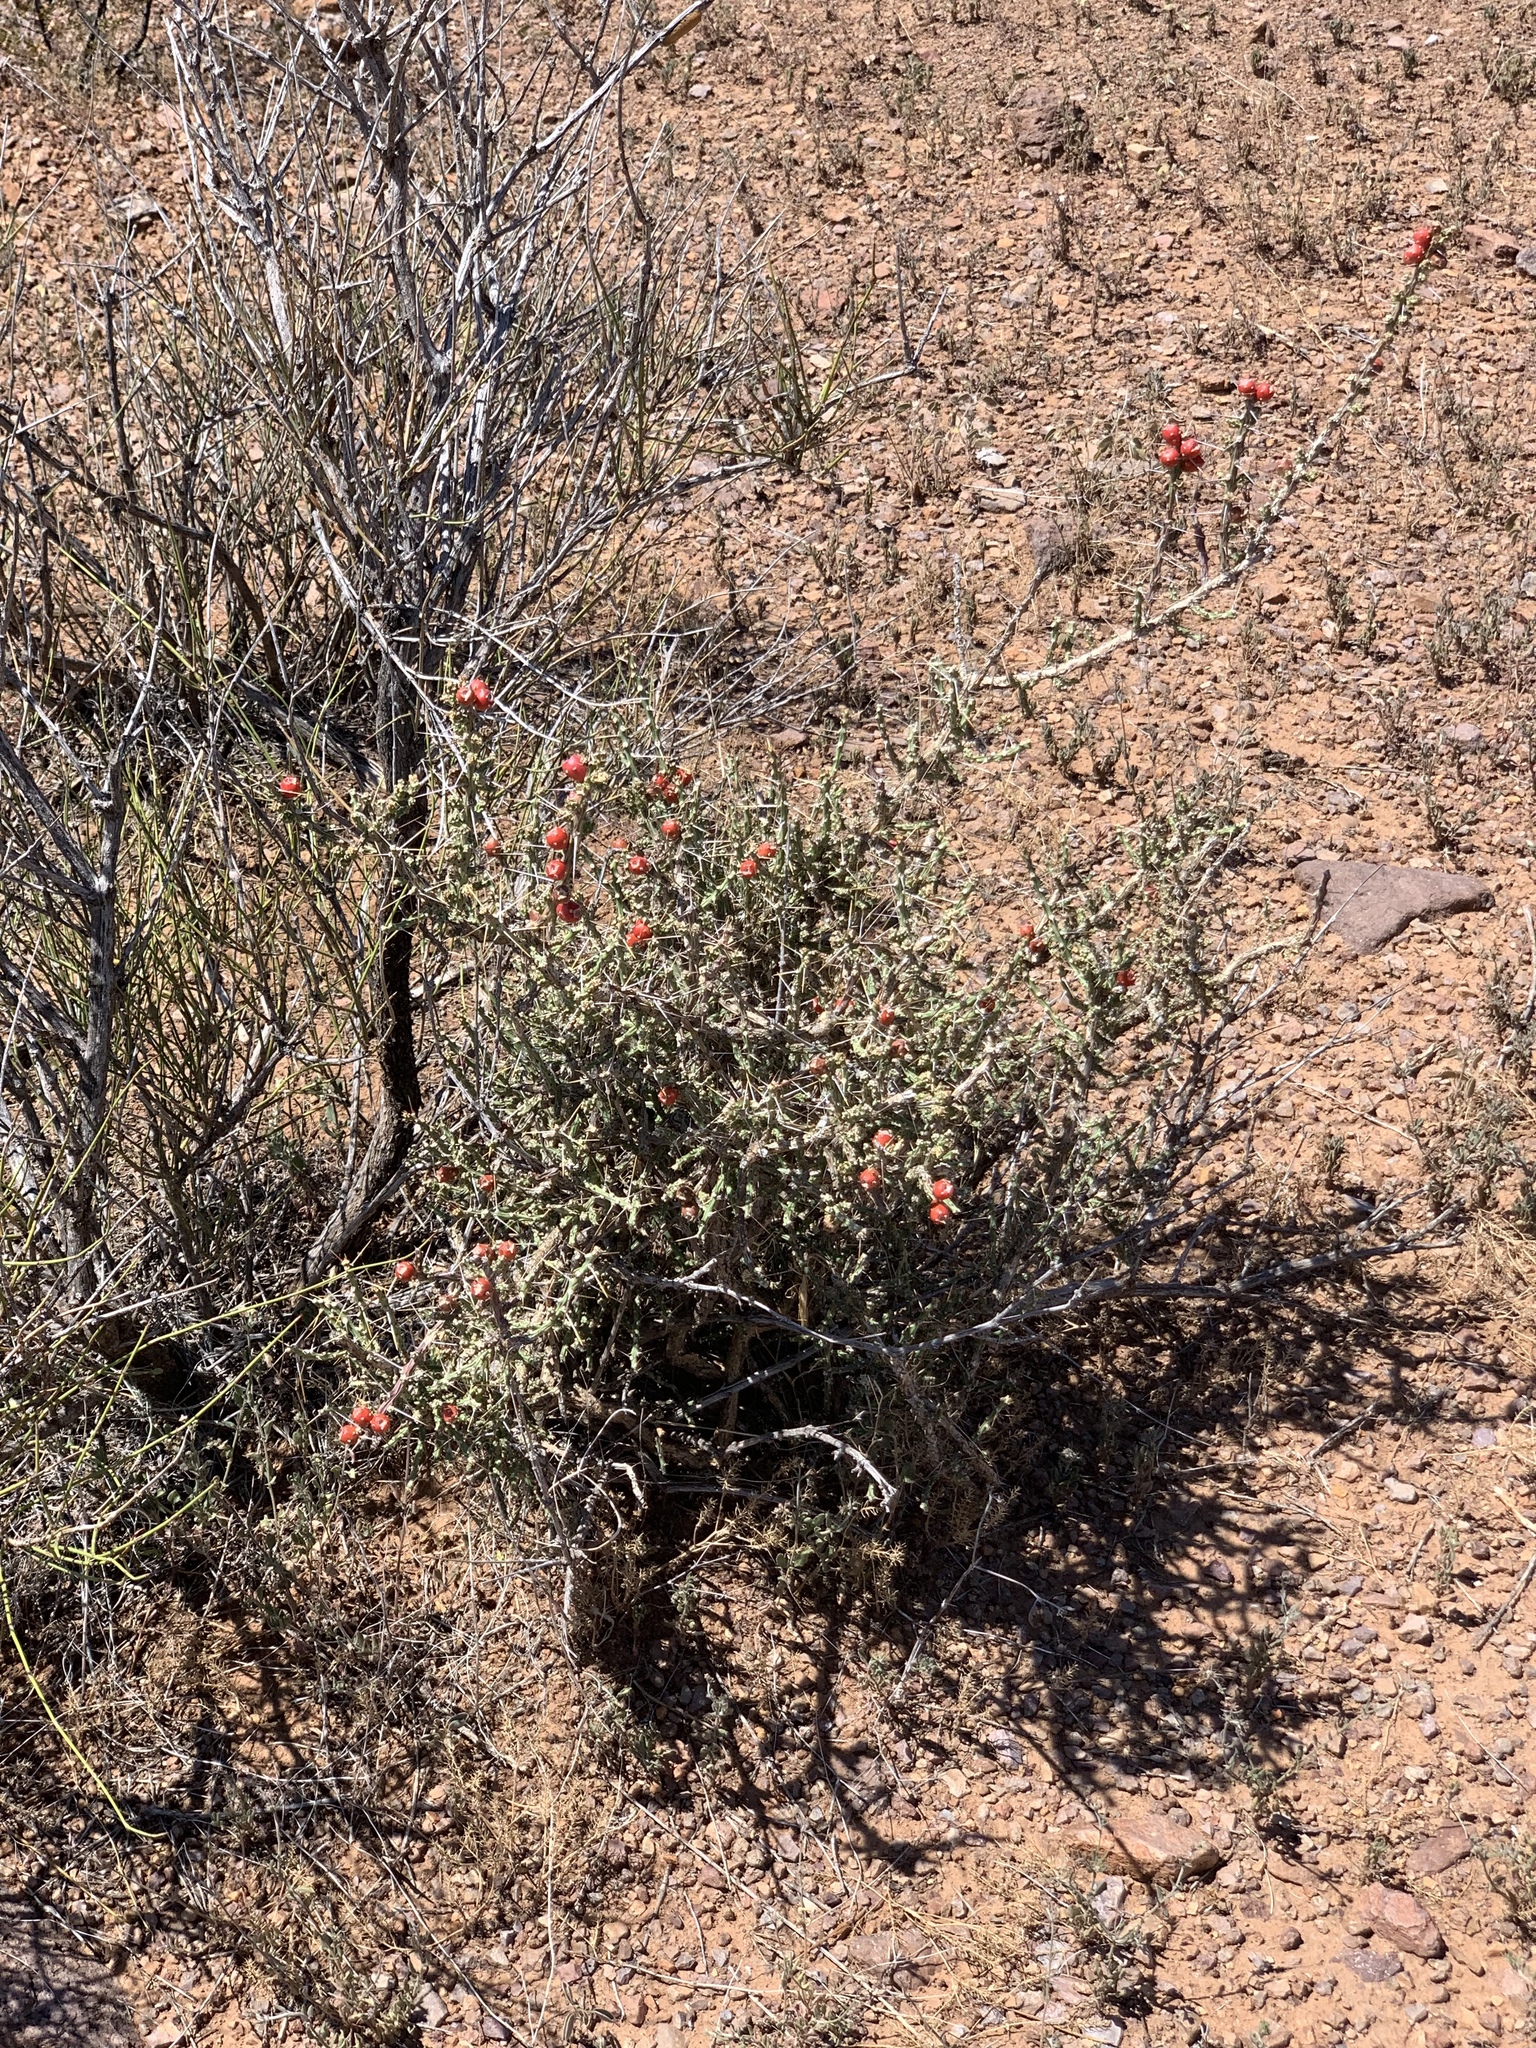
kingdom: Plantae
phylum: Tracheophyta
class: Magnoliopsida
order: Caryophyllales
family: Cactaceae
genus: Cylindropuntia
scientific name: Cylindropuntia leptocaulis
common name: Christmas cactus
